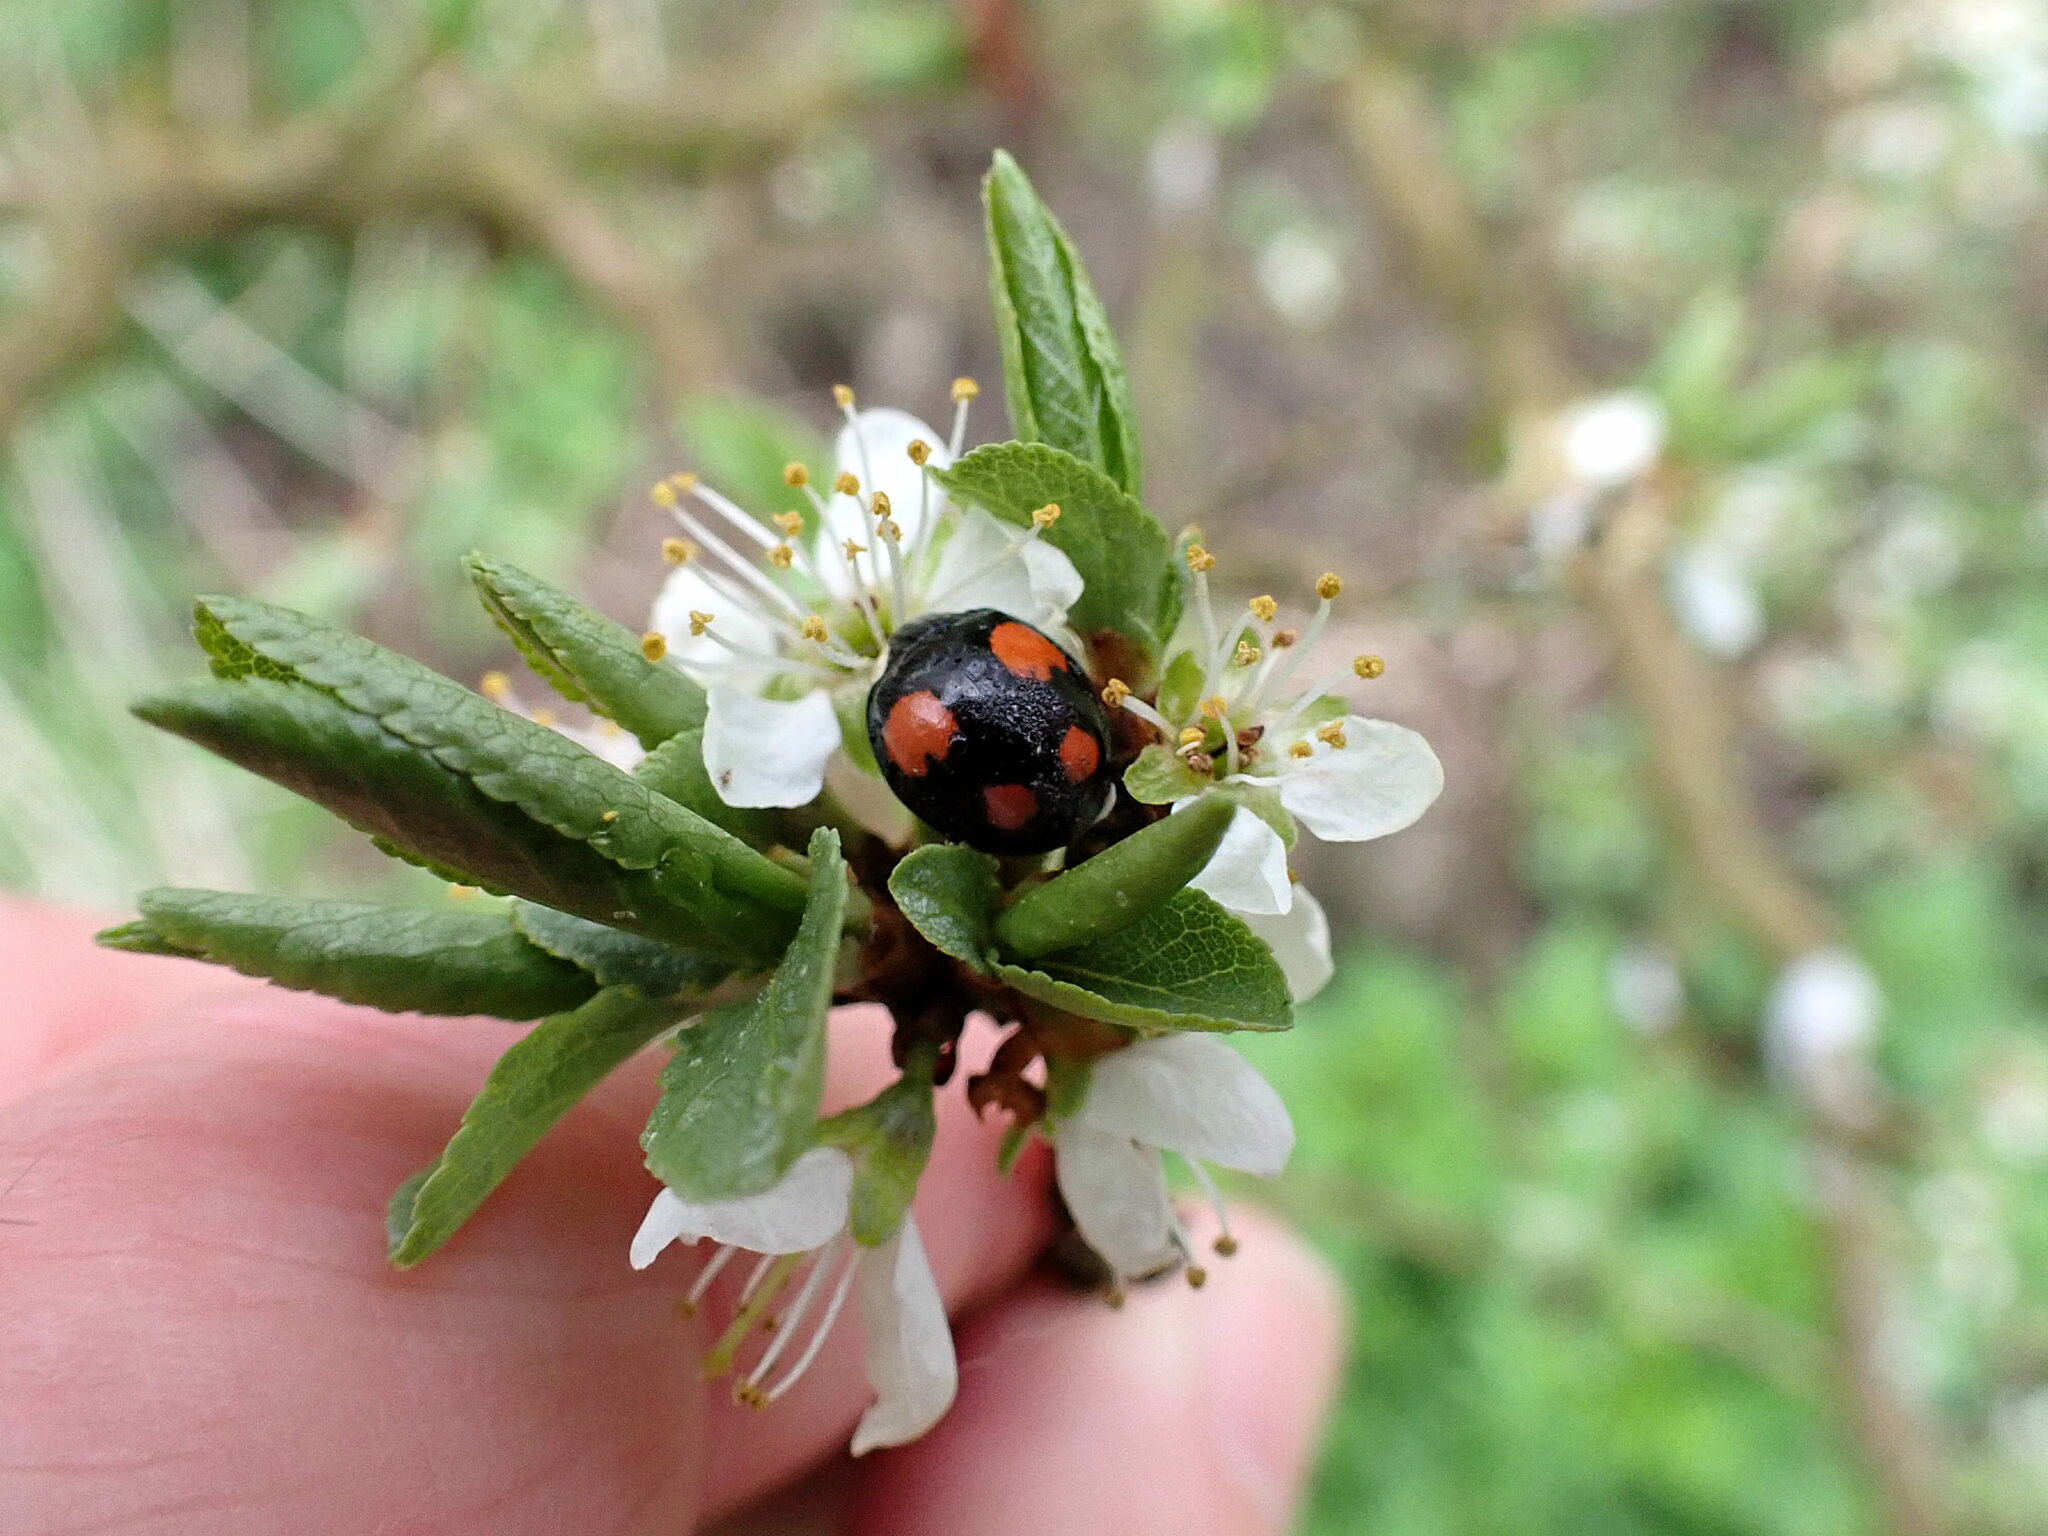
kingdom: Animalia
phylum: Arthropoda
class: Insecta
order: Coleoptera
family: Coccinellidae
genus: Harmonia
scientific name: Harmonia axyridis
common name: Harlequin ladybird
